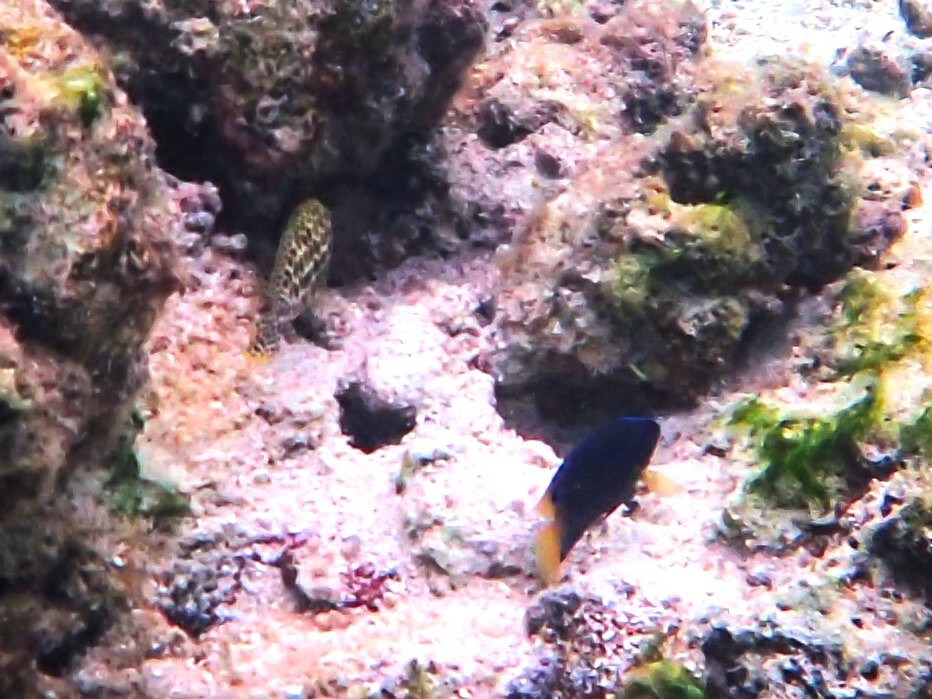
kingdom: Animalia
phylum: Chordata
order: Perciformes
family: Pomacentridae
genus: Microspathodon
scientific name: Microspathodon chrysurus
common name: Yellowtail damselfish
